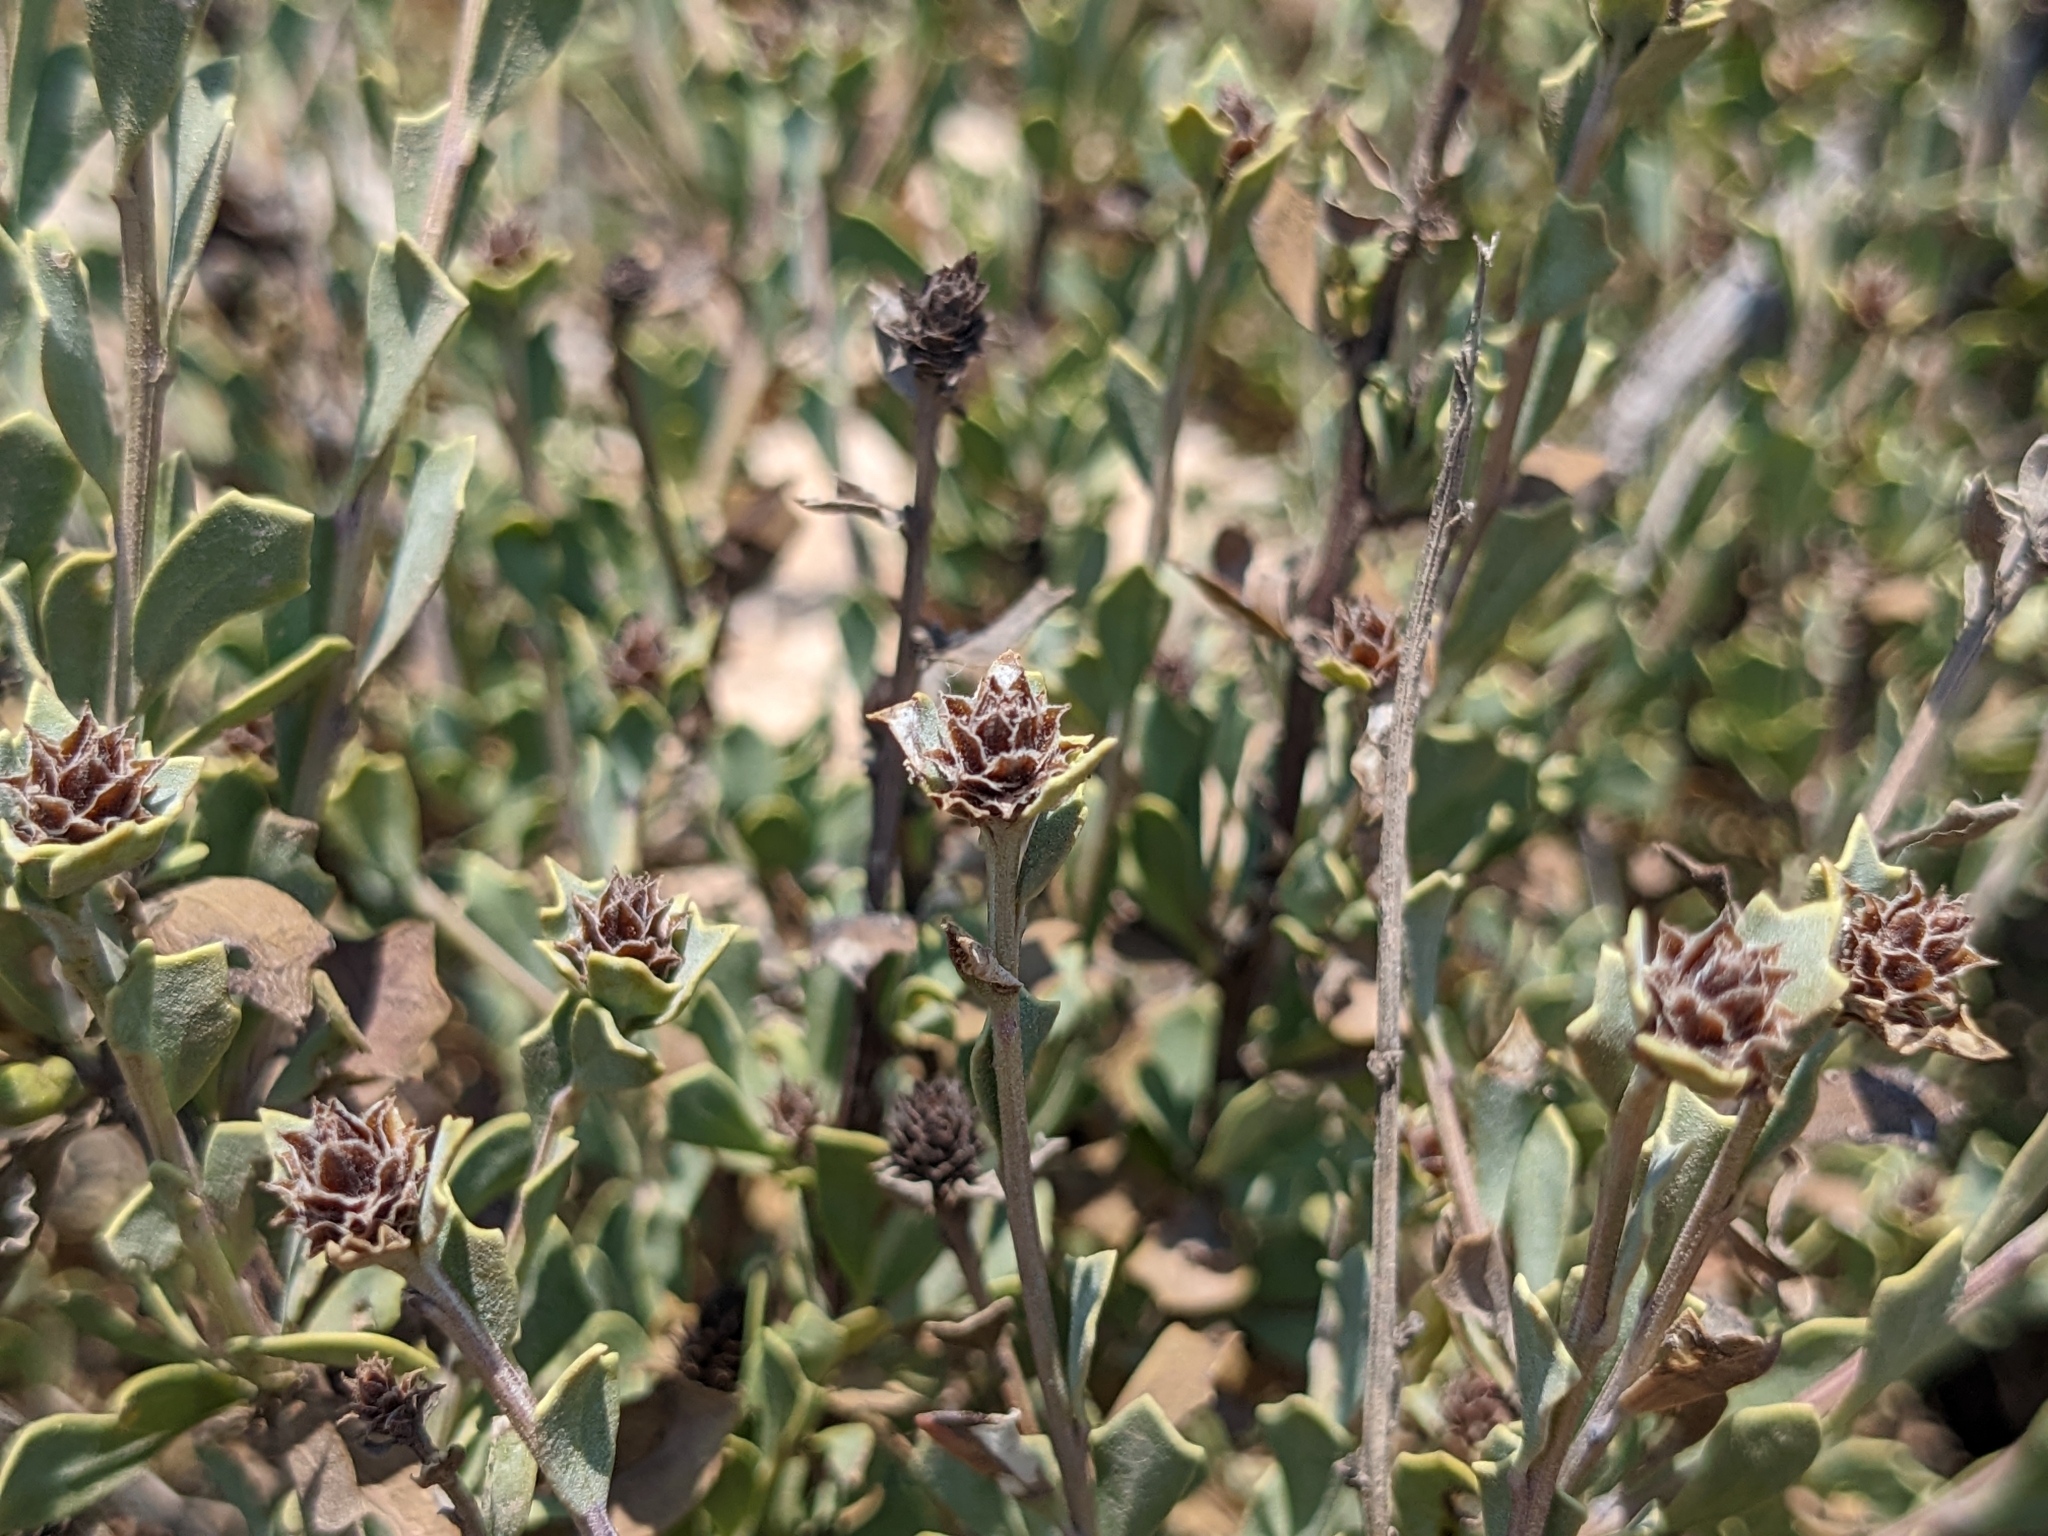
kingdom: Plantae
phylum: Tracheophyta
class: Magnoliopsida
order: Lamiales
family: Plantaginaceae
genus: Globularia
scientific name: Globularia alypum
